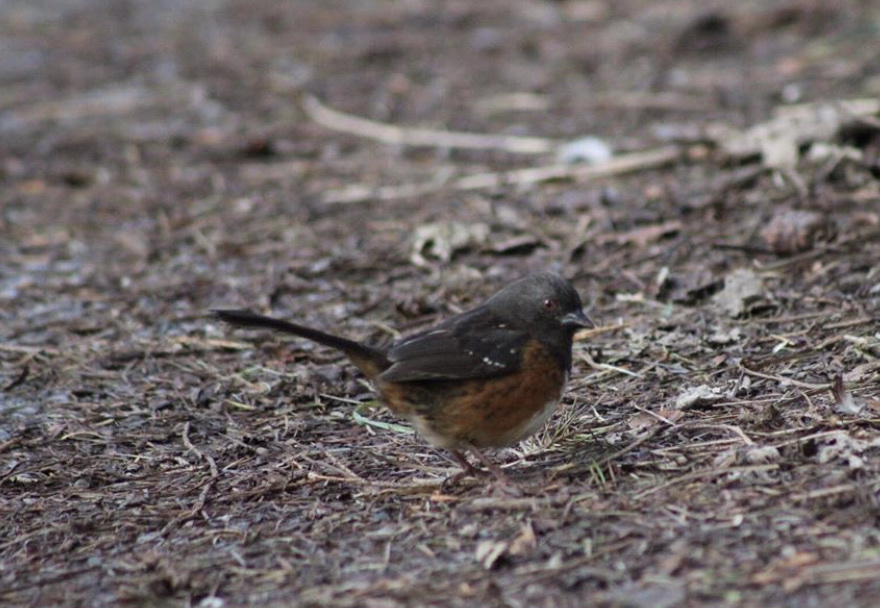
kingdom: Animalia
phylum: Chordata
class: Aves
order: Passeriformes
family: Passerellidae
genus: Pipilo
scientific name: Pipilo maculatus
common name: Spotted towhee
